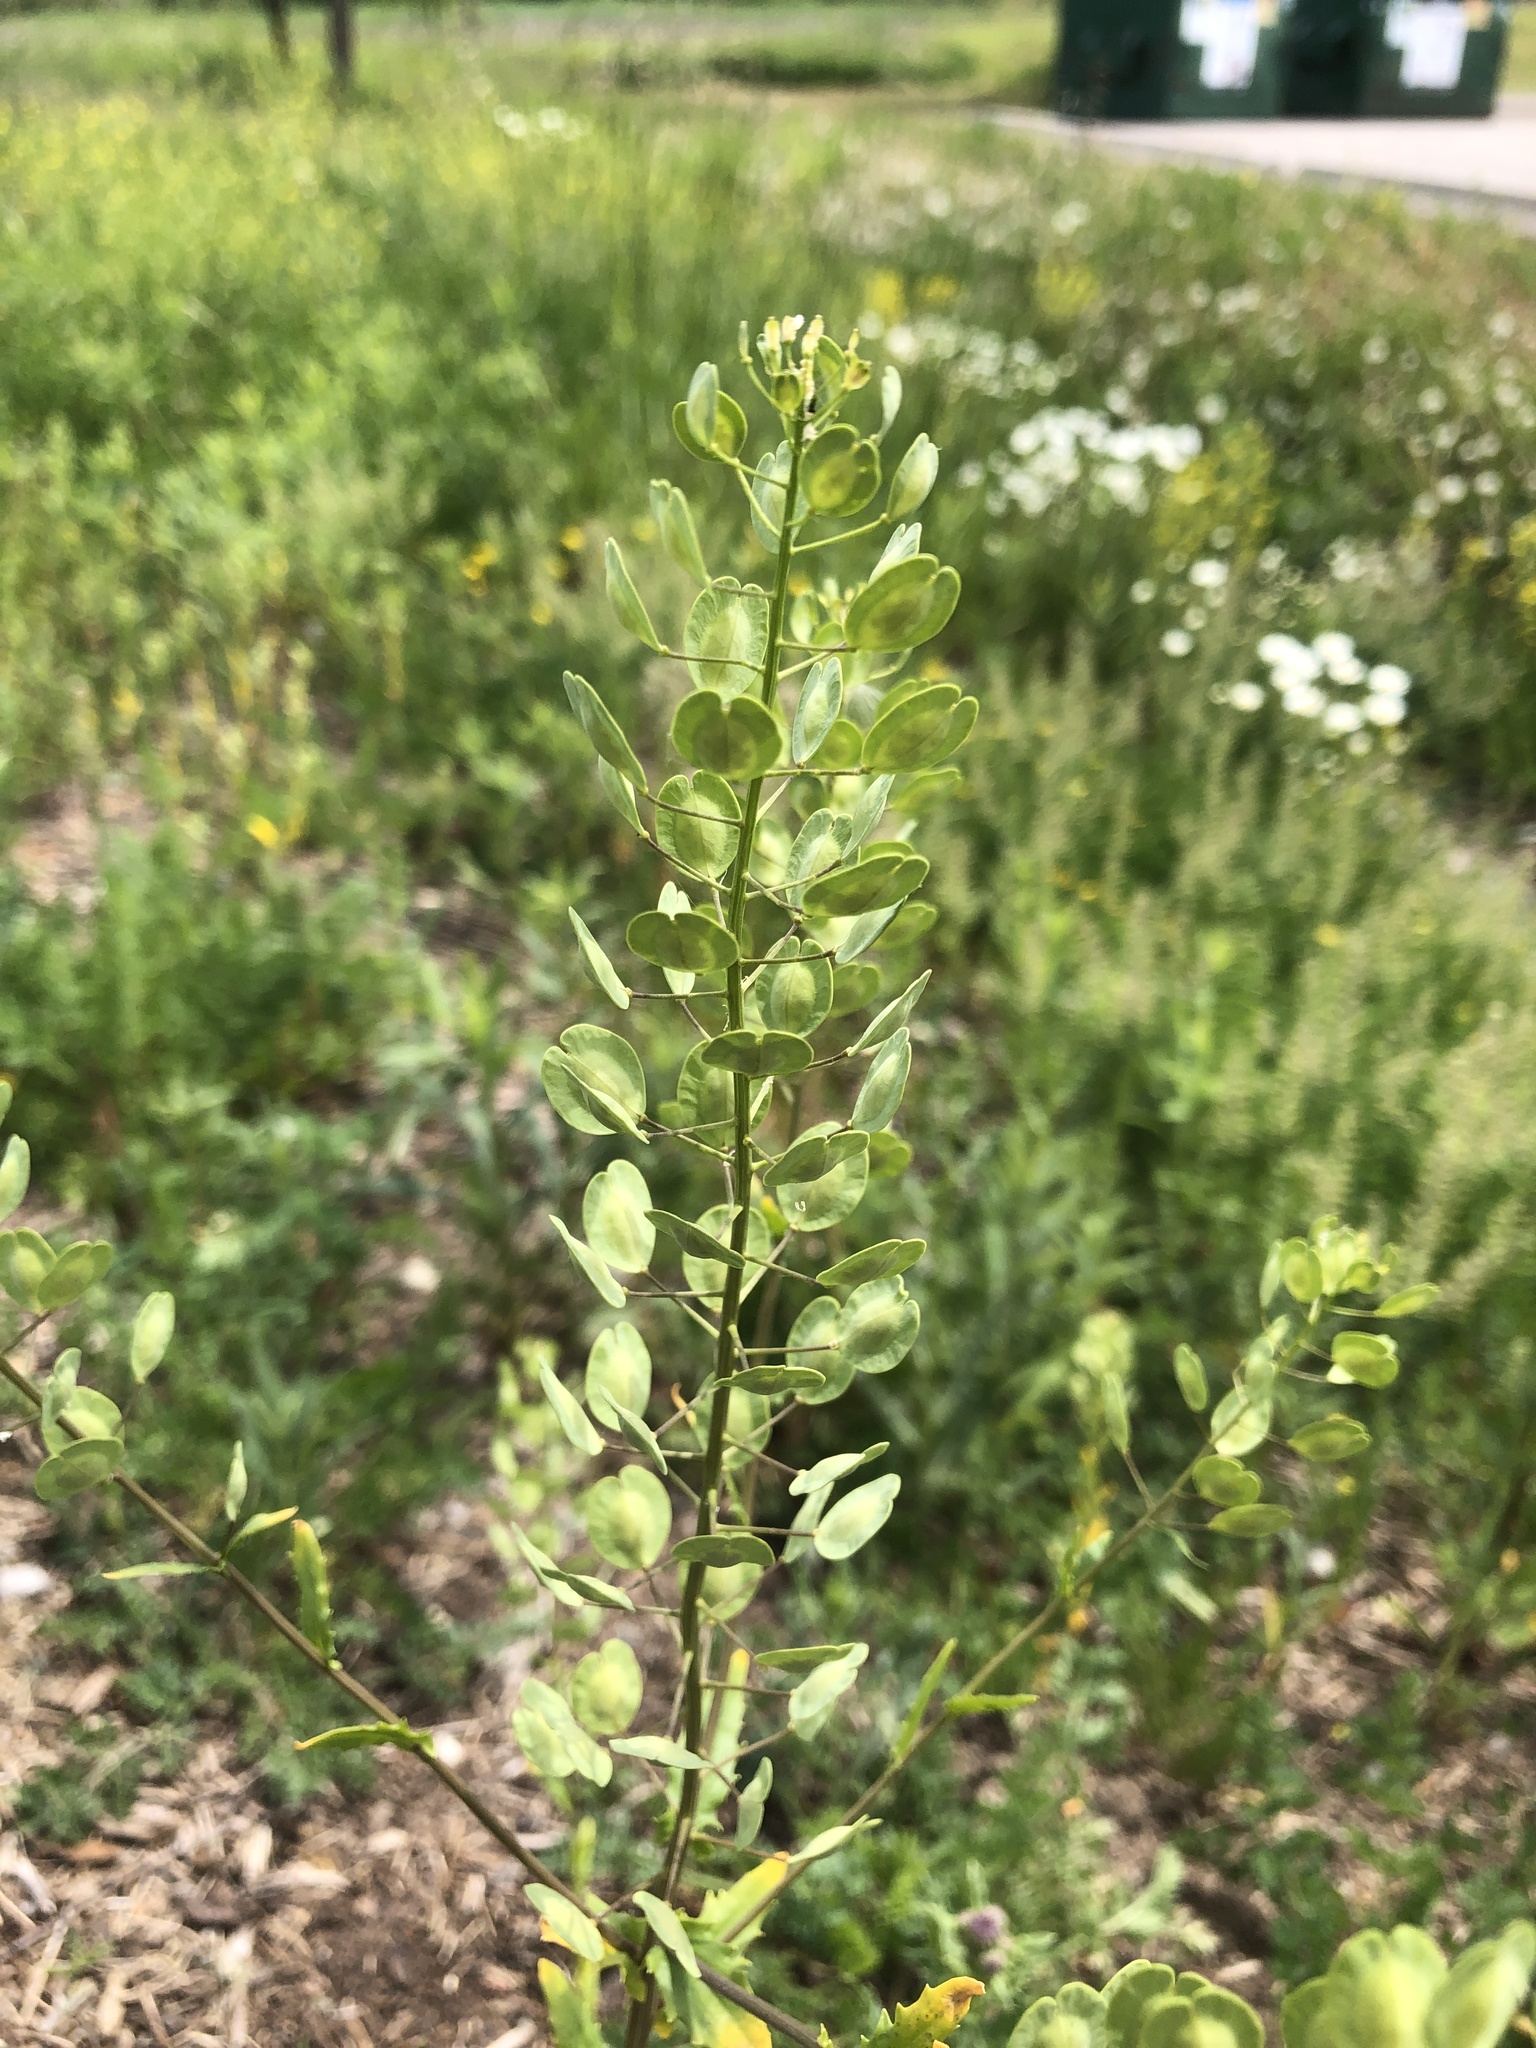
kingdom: Plantae
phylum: Tracheophyta
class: Magnoliopsida
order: Brassicales
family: Brassicaceae
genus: Thlaspi
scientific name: Thlaspi arvense
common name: Field pennycress
